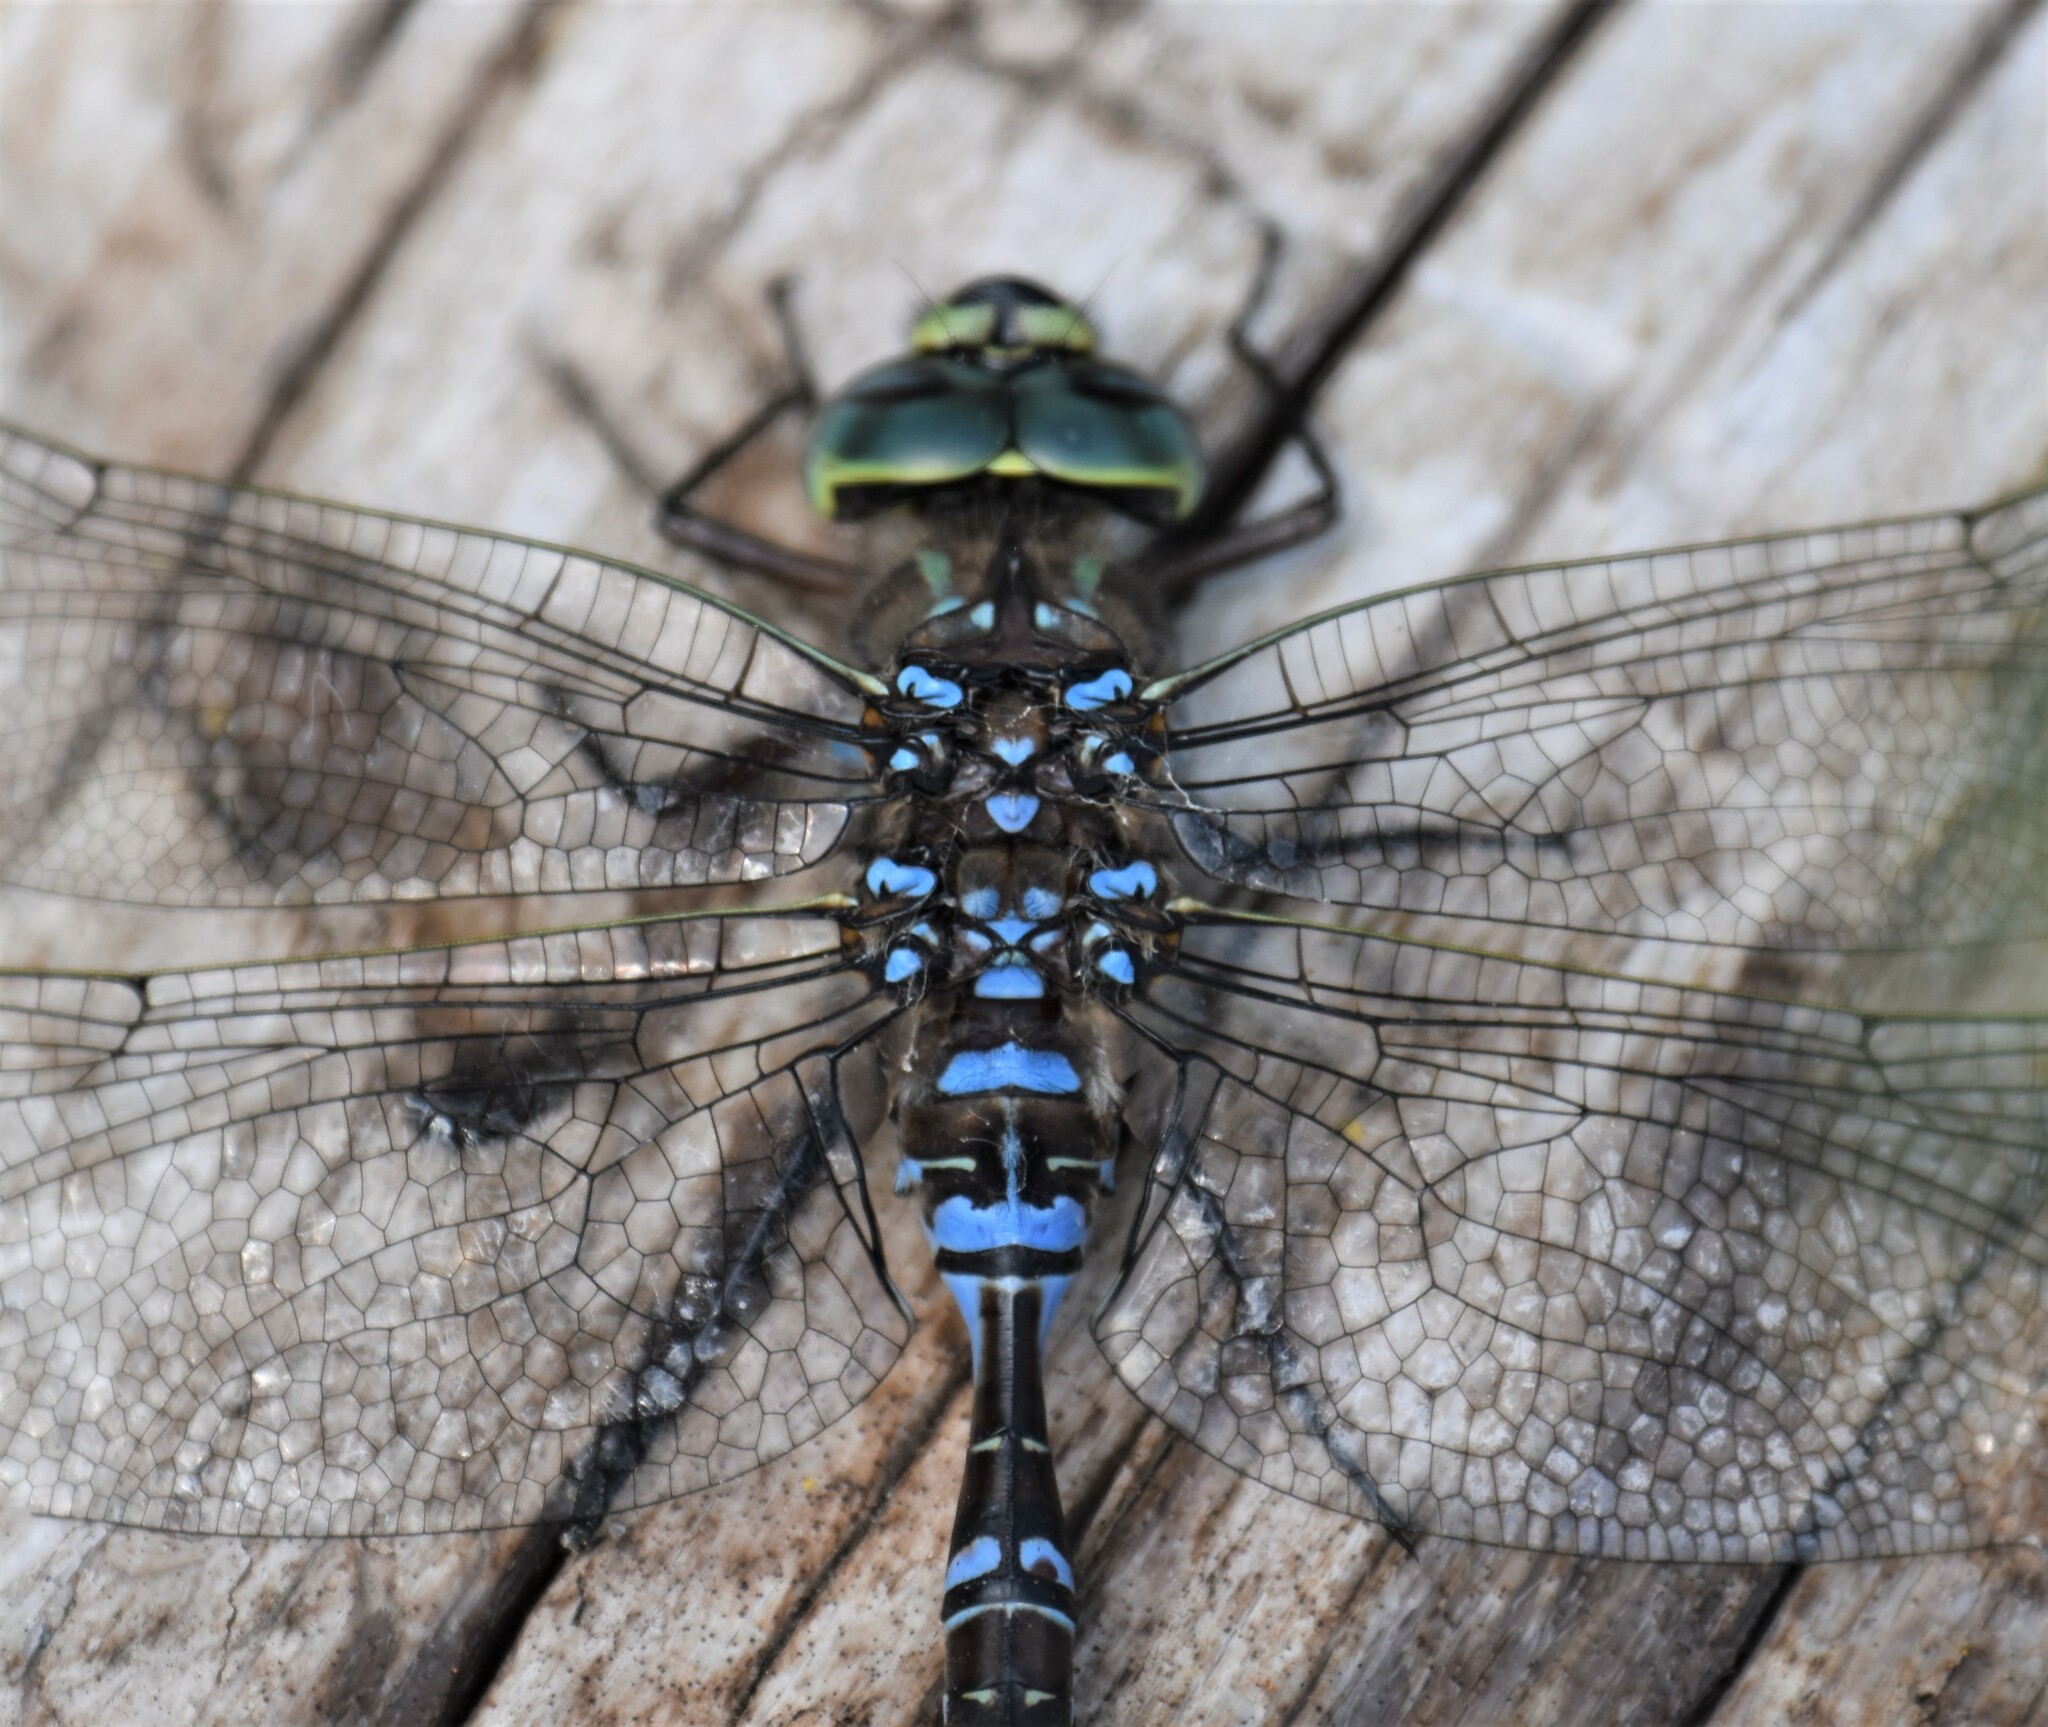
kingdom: Animalia
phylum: Arthropoda
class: Insecta
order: Odonata
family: Aeshnidae
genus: Aeshna
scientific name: Aeshna eremita
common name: Lake darner
